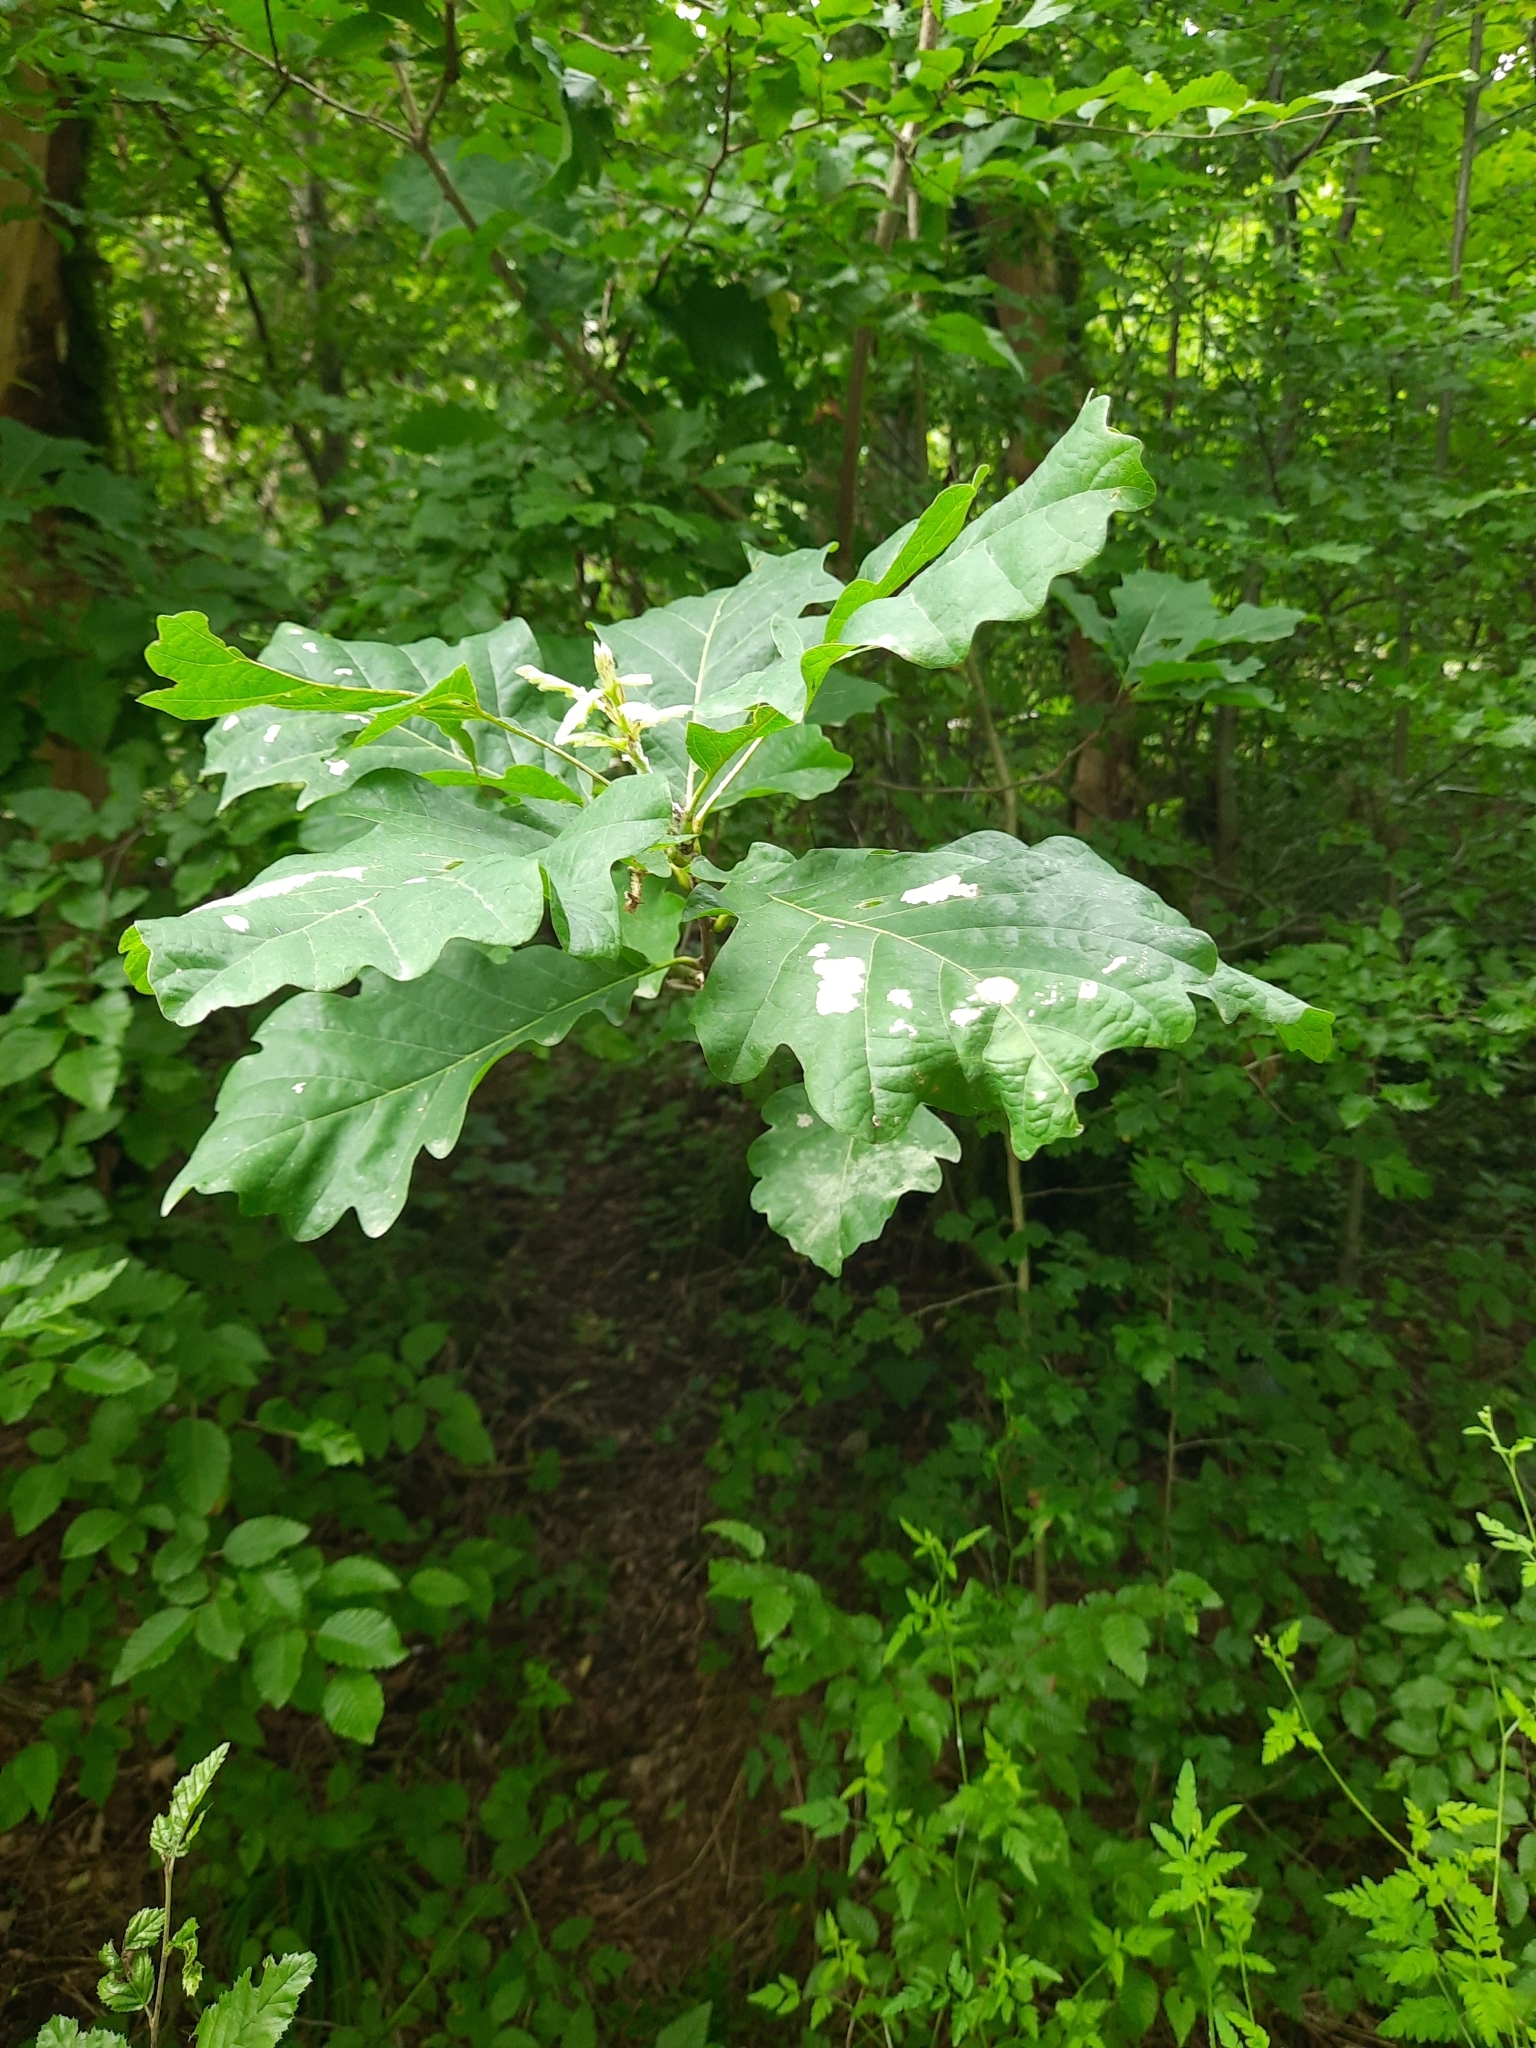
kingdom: Plantae
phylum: Tracheophyta
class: Magnoliopsida
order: Fagales
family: Fagaceae
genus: Quercus
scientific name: Quercus robur
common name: Pedunculate oak
